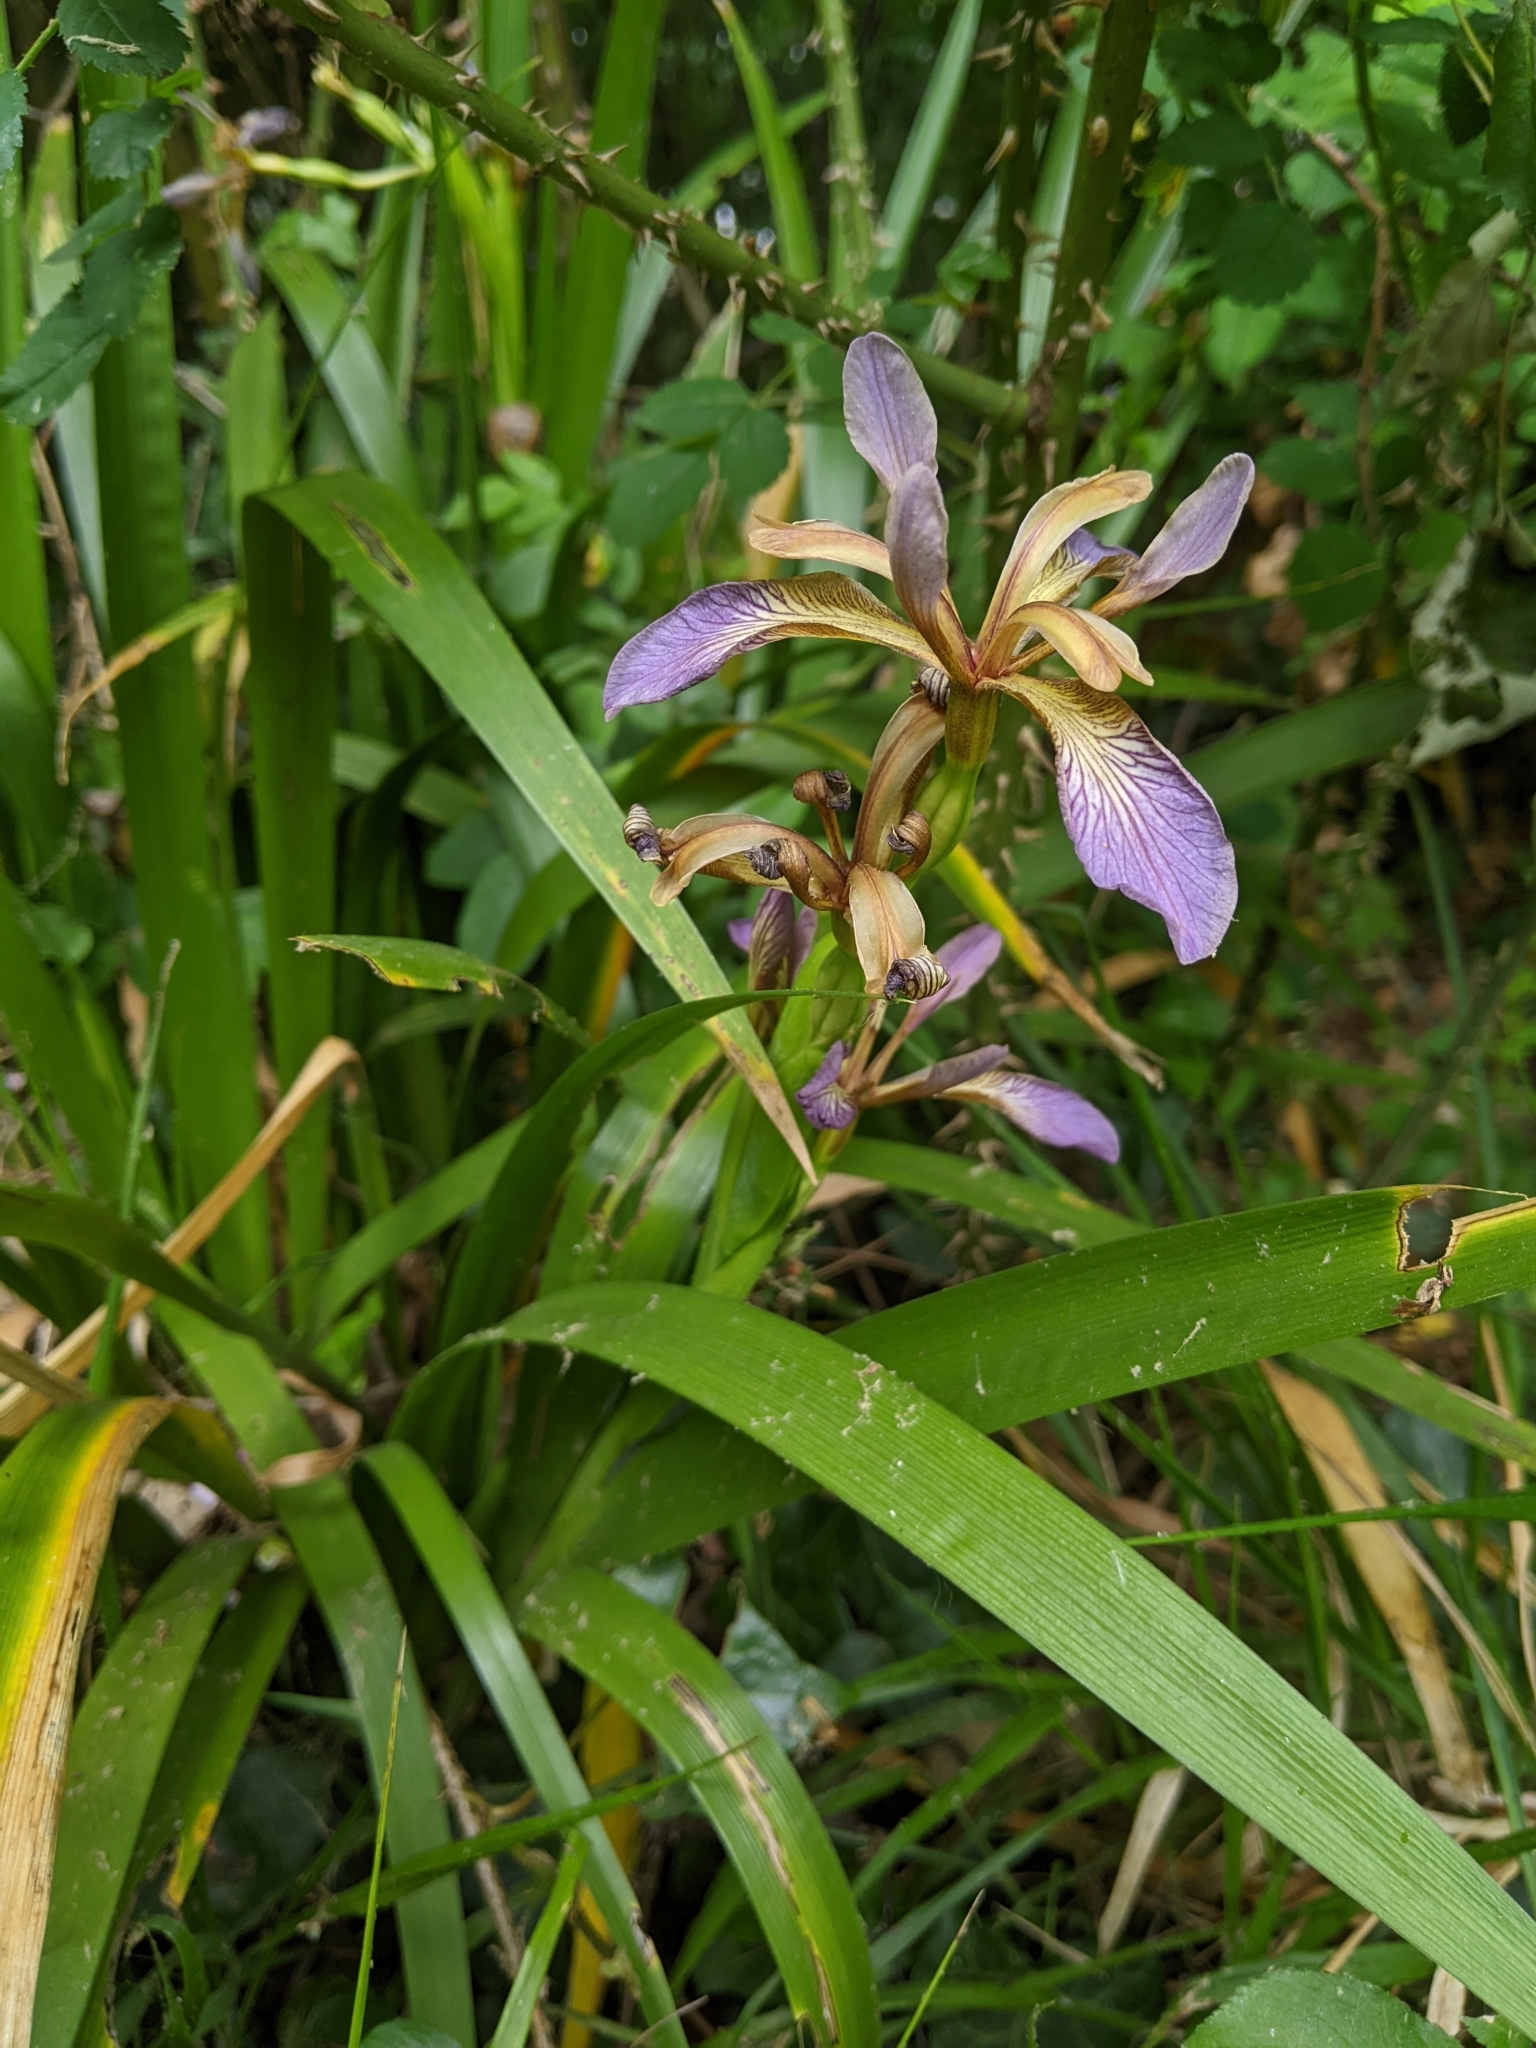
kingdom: Plantae
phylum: Tracheophyta
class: Liliopsida
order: Asparagales
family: Iridaceae
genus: Iris
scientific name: Iris foetidissima
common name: Stinking iris
